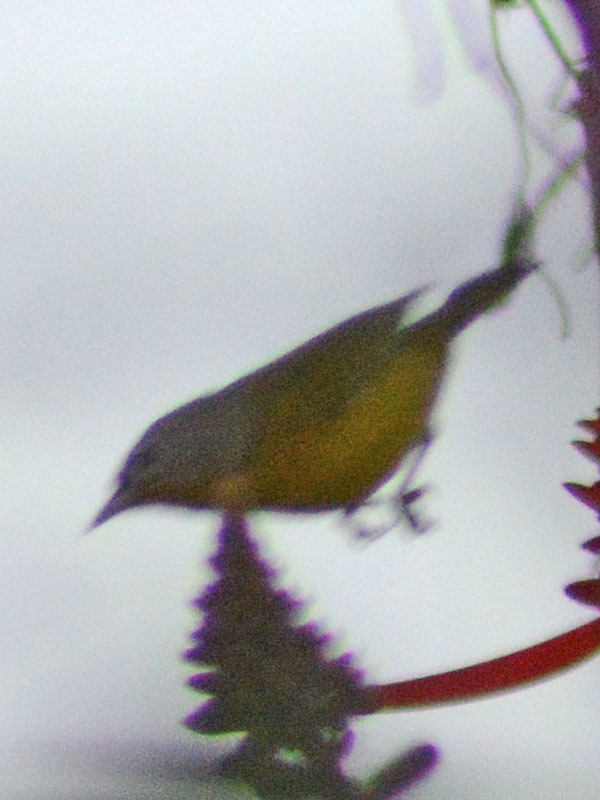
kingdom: Animalia
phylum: Chordata
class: Aves
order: Passeriformes
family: Parulidae
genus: Leiothlypis
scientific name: Leiothlypis ruficapilla
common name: Nashville warbler
